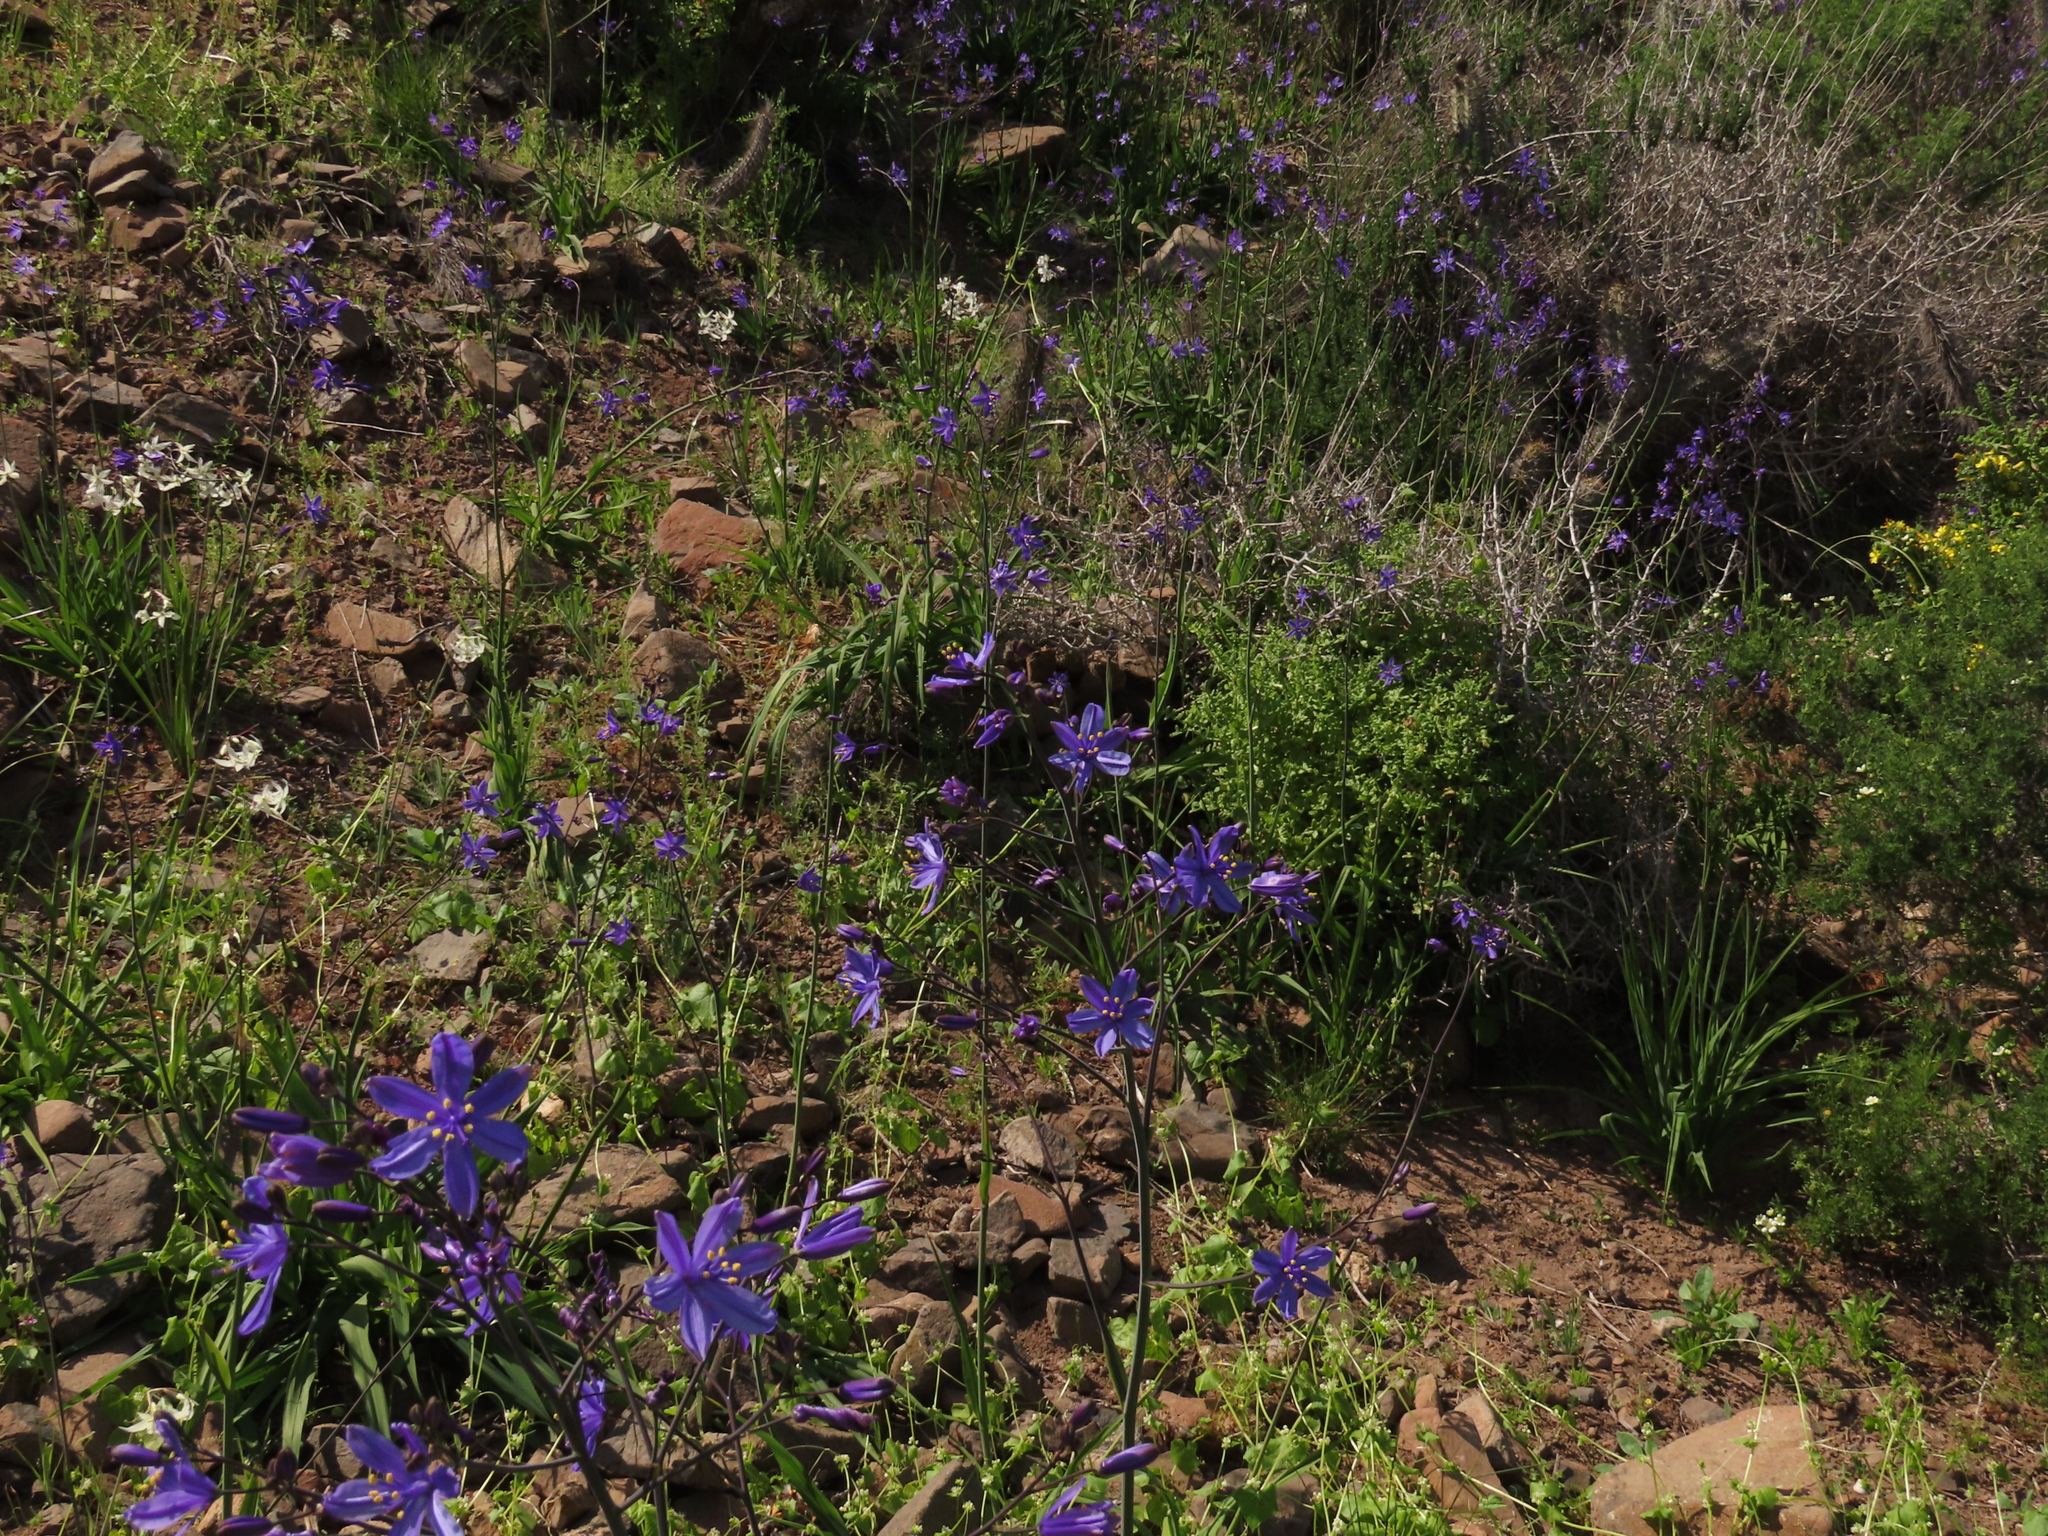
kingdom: Plantae
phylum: Tracheophyta
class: Liliopsida
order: Asparagales
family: Asphodelaceae
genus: Pasithea
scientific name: Pasithea caerulea
